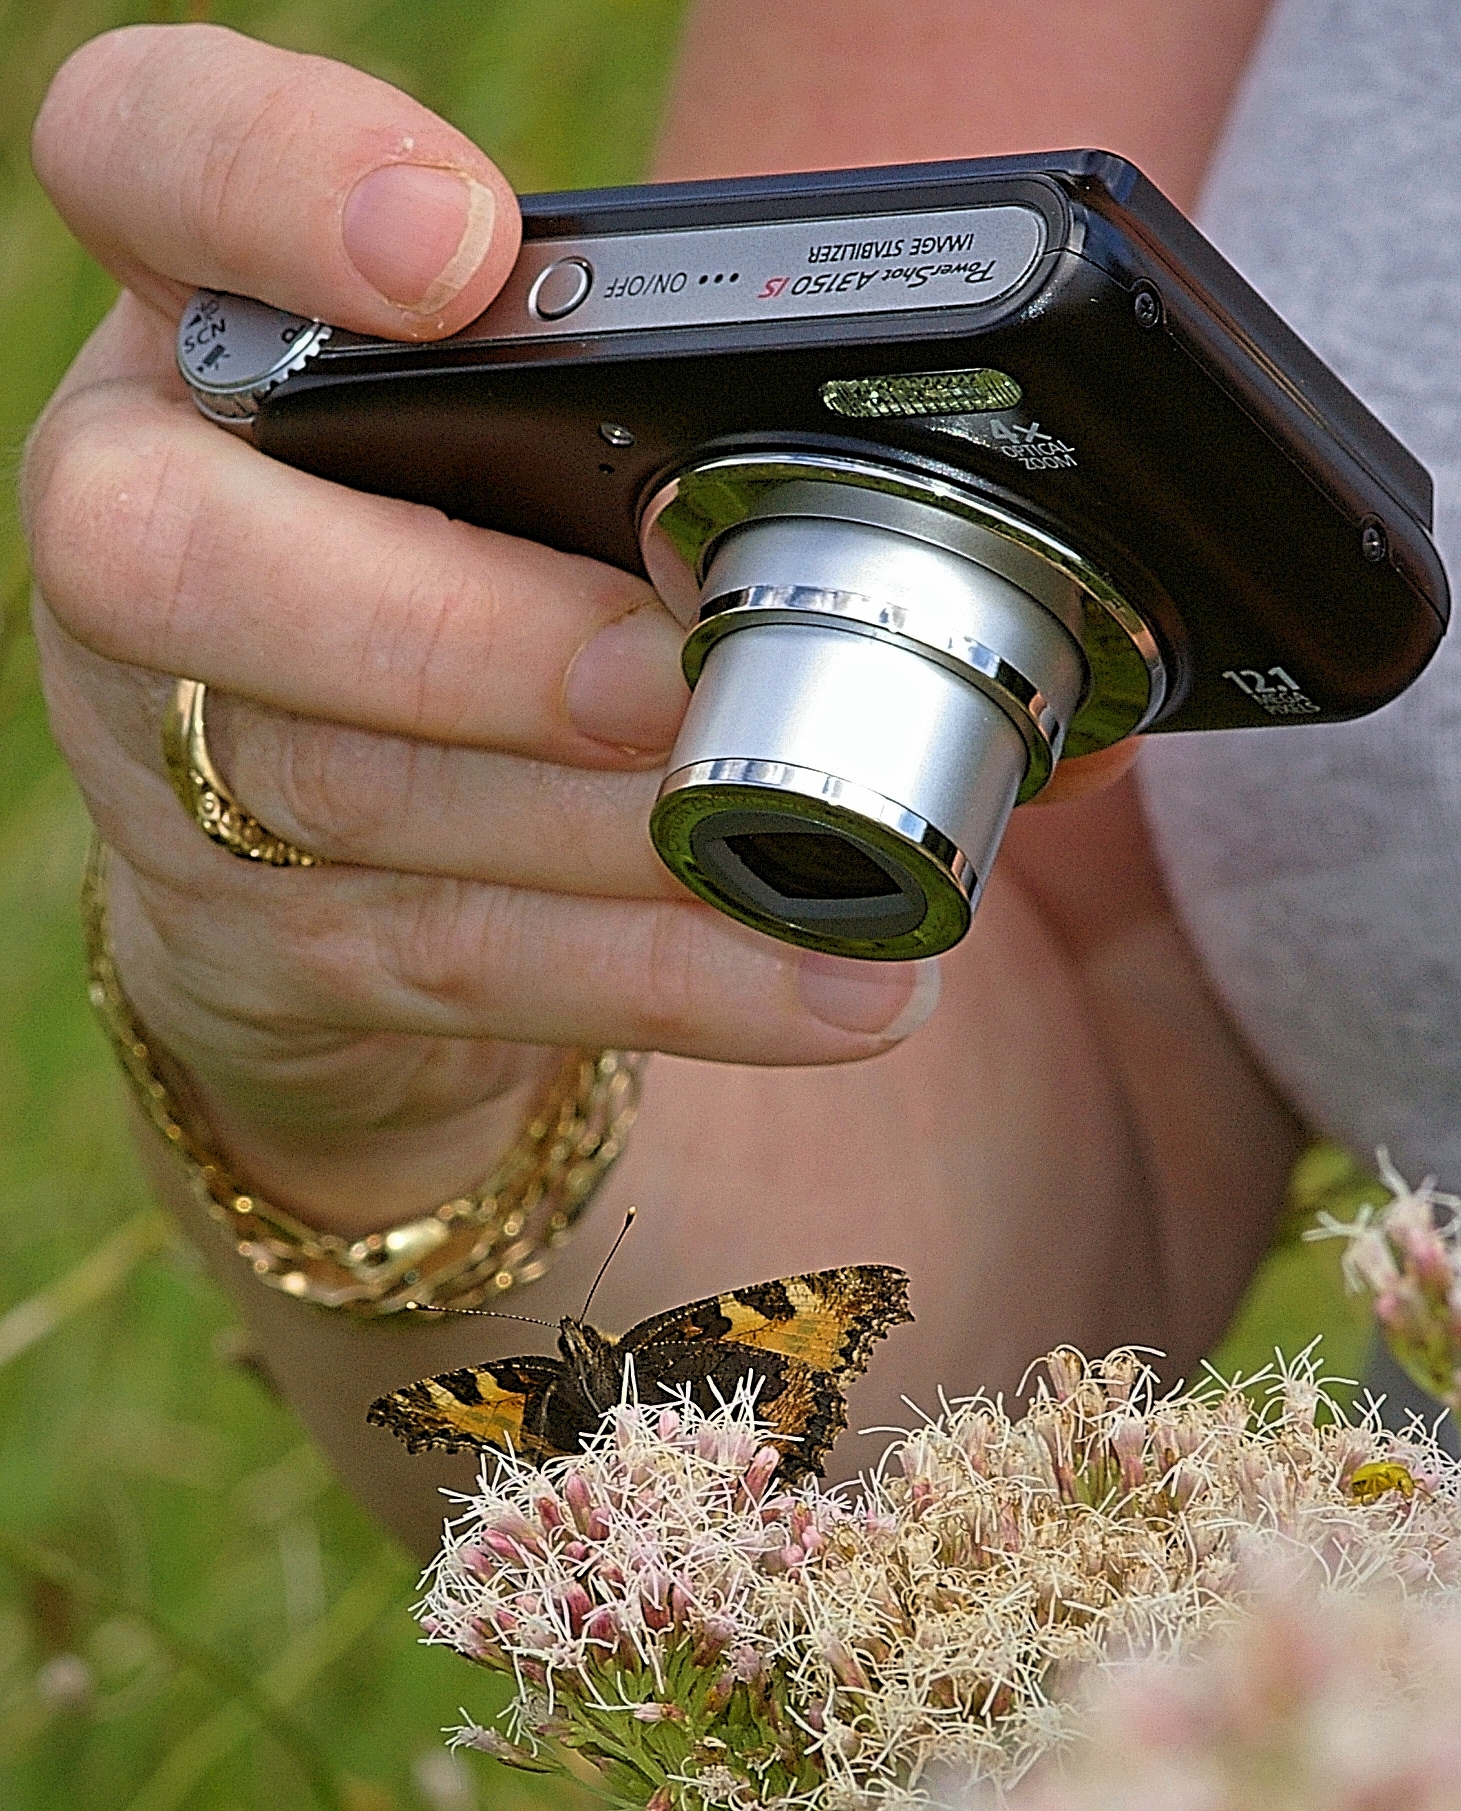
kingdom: Animalia
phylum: Arthropoda
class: Insecta
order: Lepidoptera
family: Nymphalidae
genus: Aglais
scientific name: Aglais urticae
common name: Small tortoiseshell
